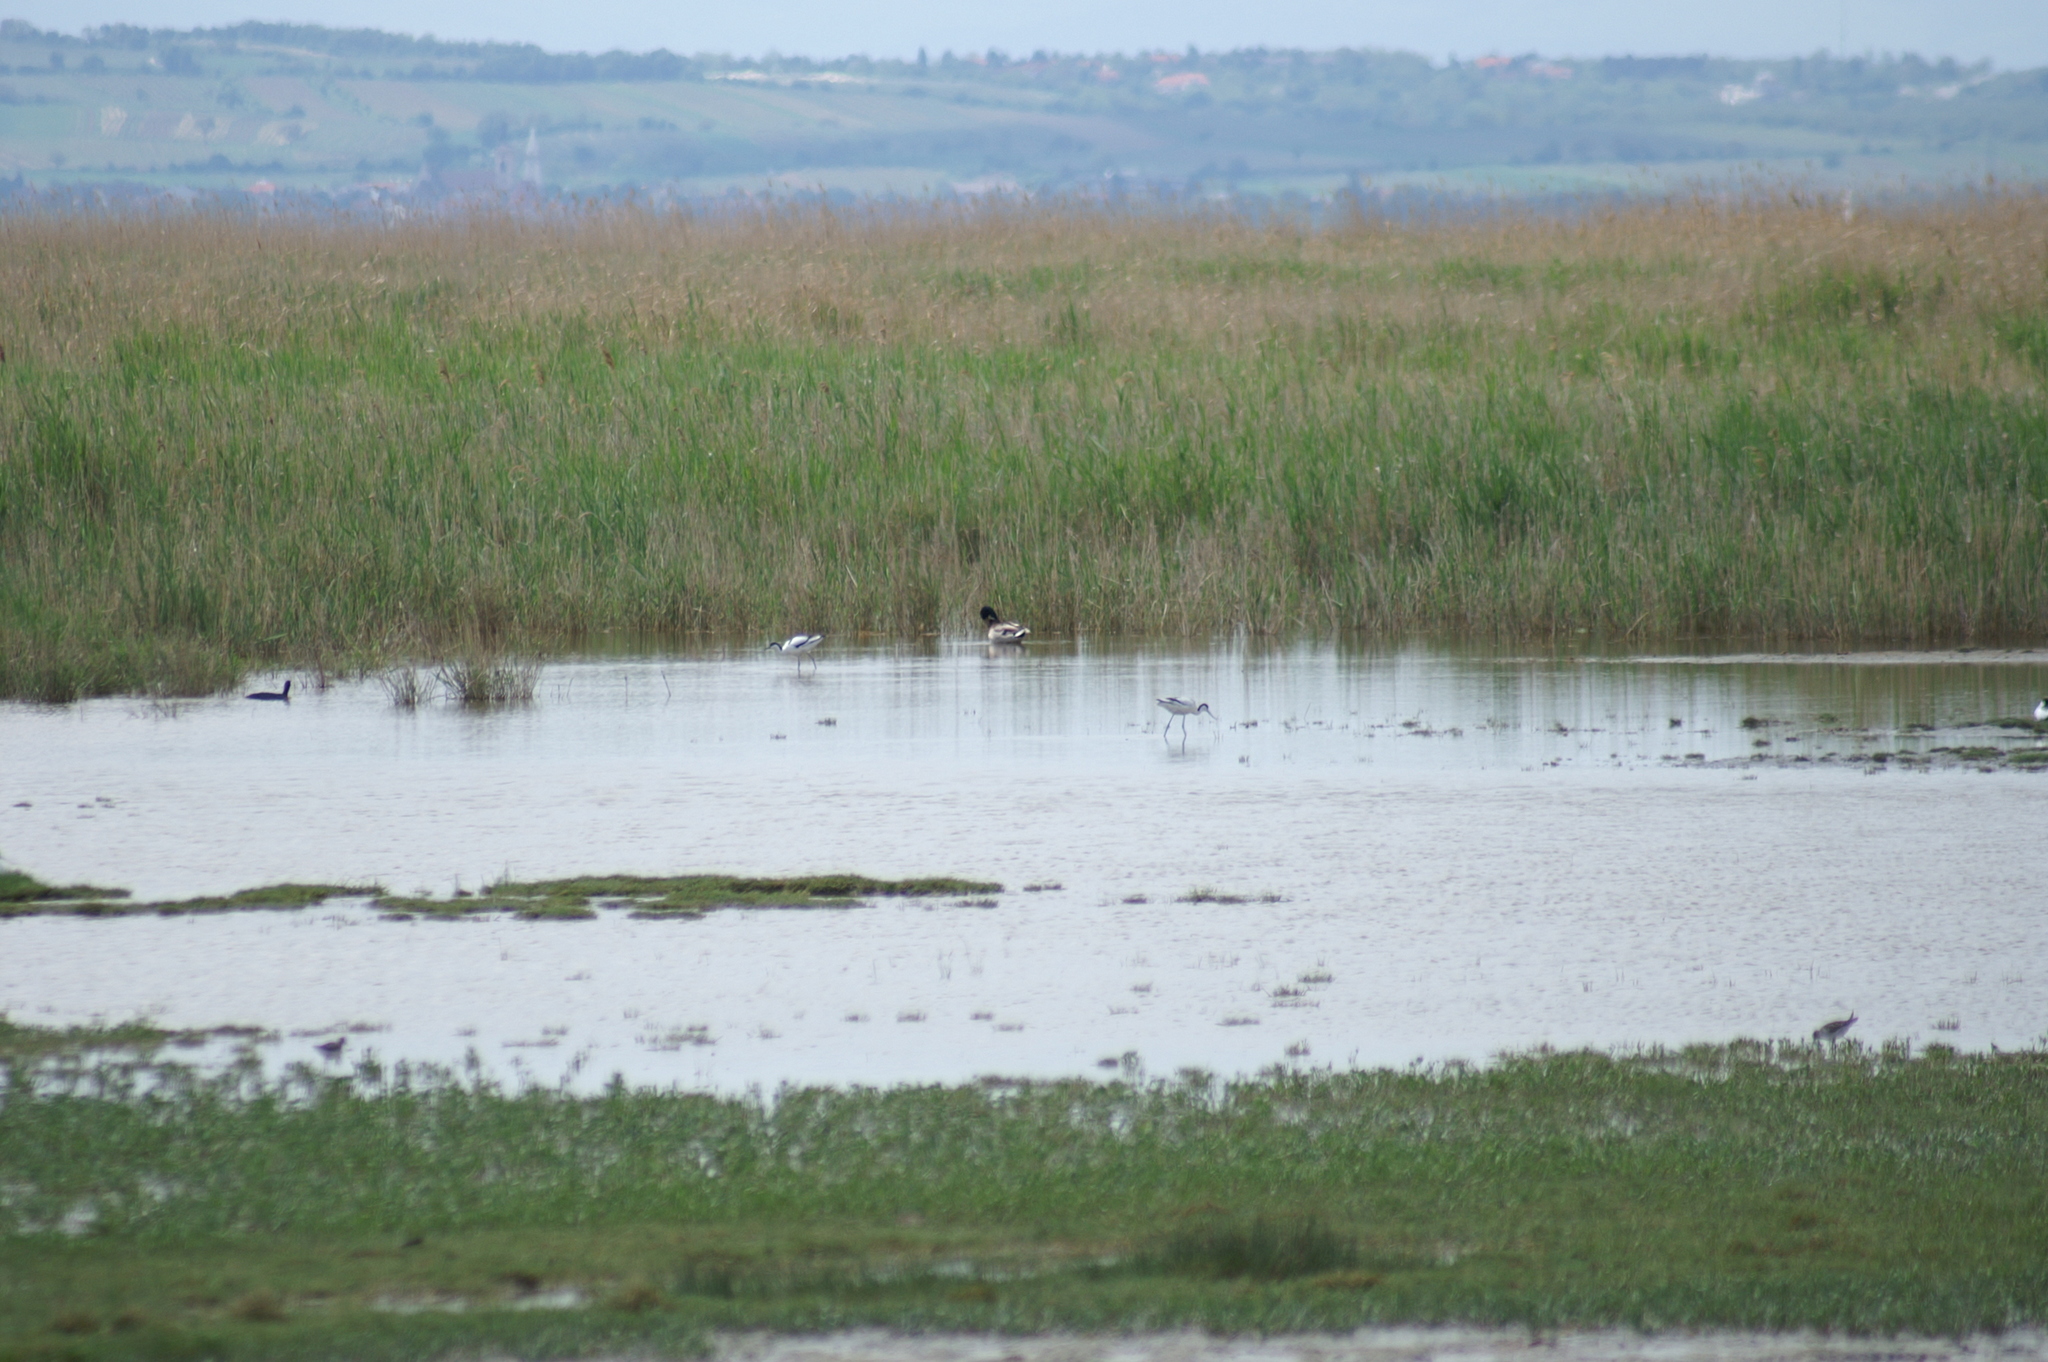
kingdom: Animalia
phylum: Chordata
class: Aves
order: Charadriiformes
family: Recurvirostridae
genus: Recurvirostra
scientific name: Recurvirostra avosetta
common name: Pied avocet
